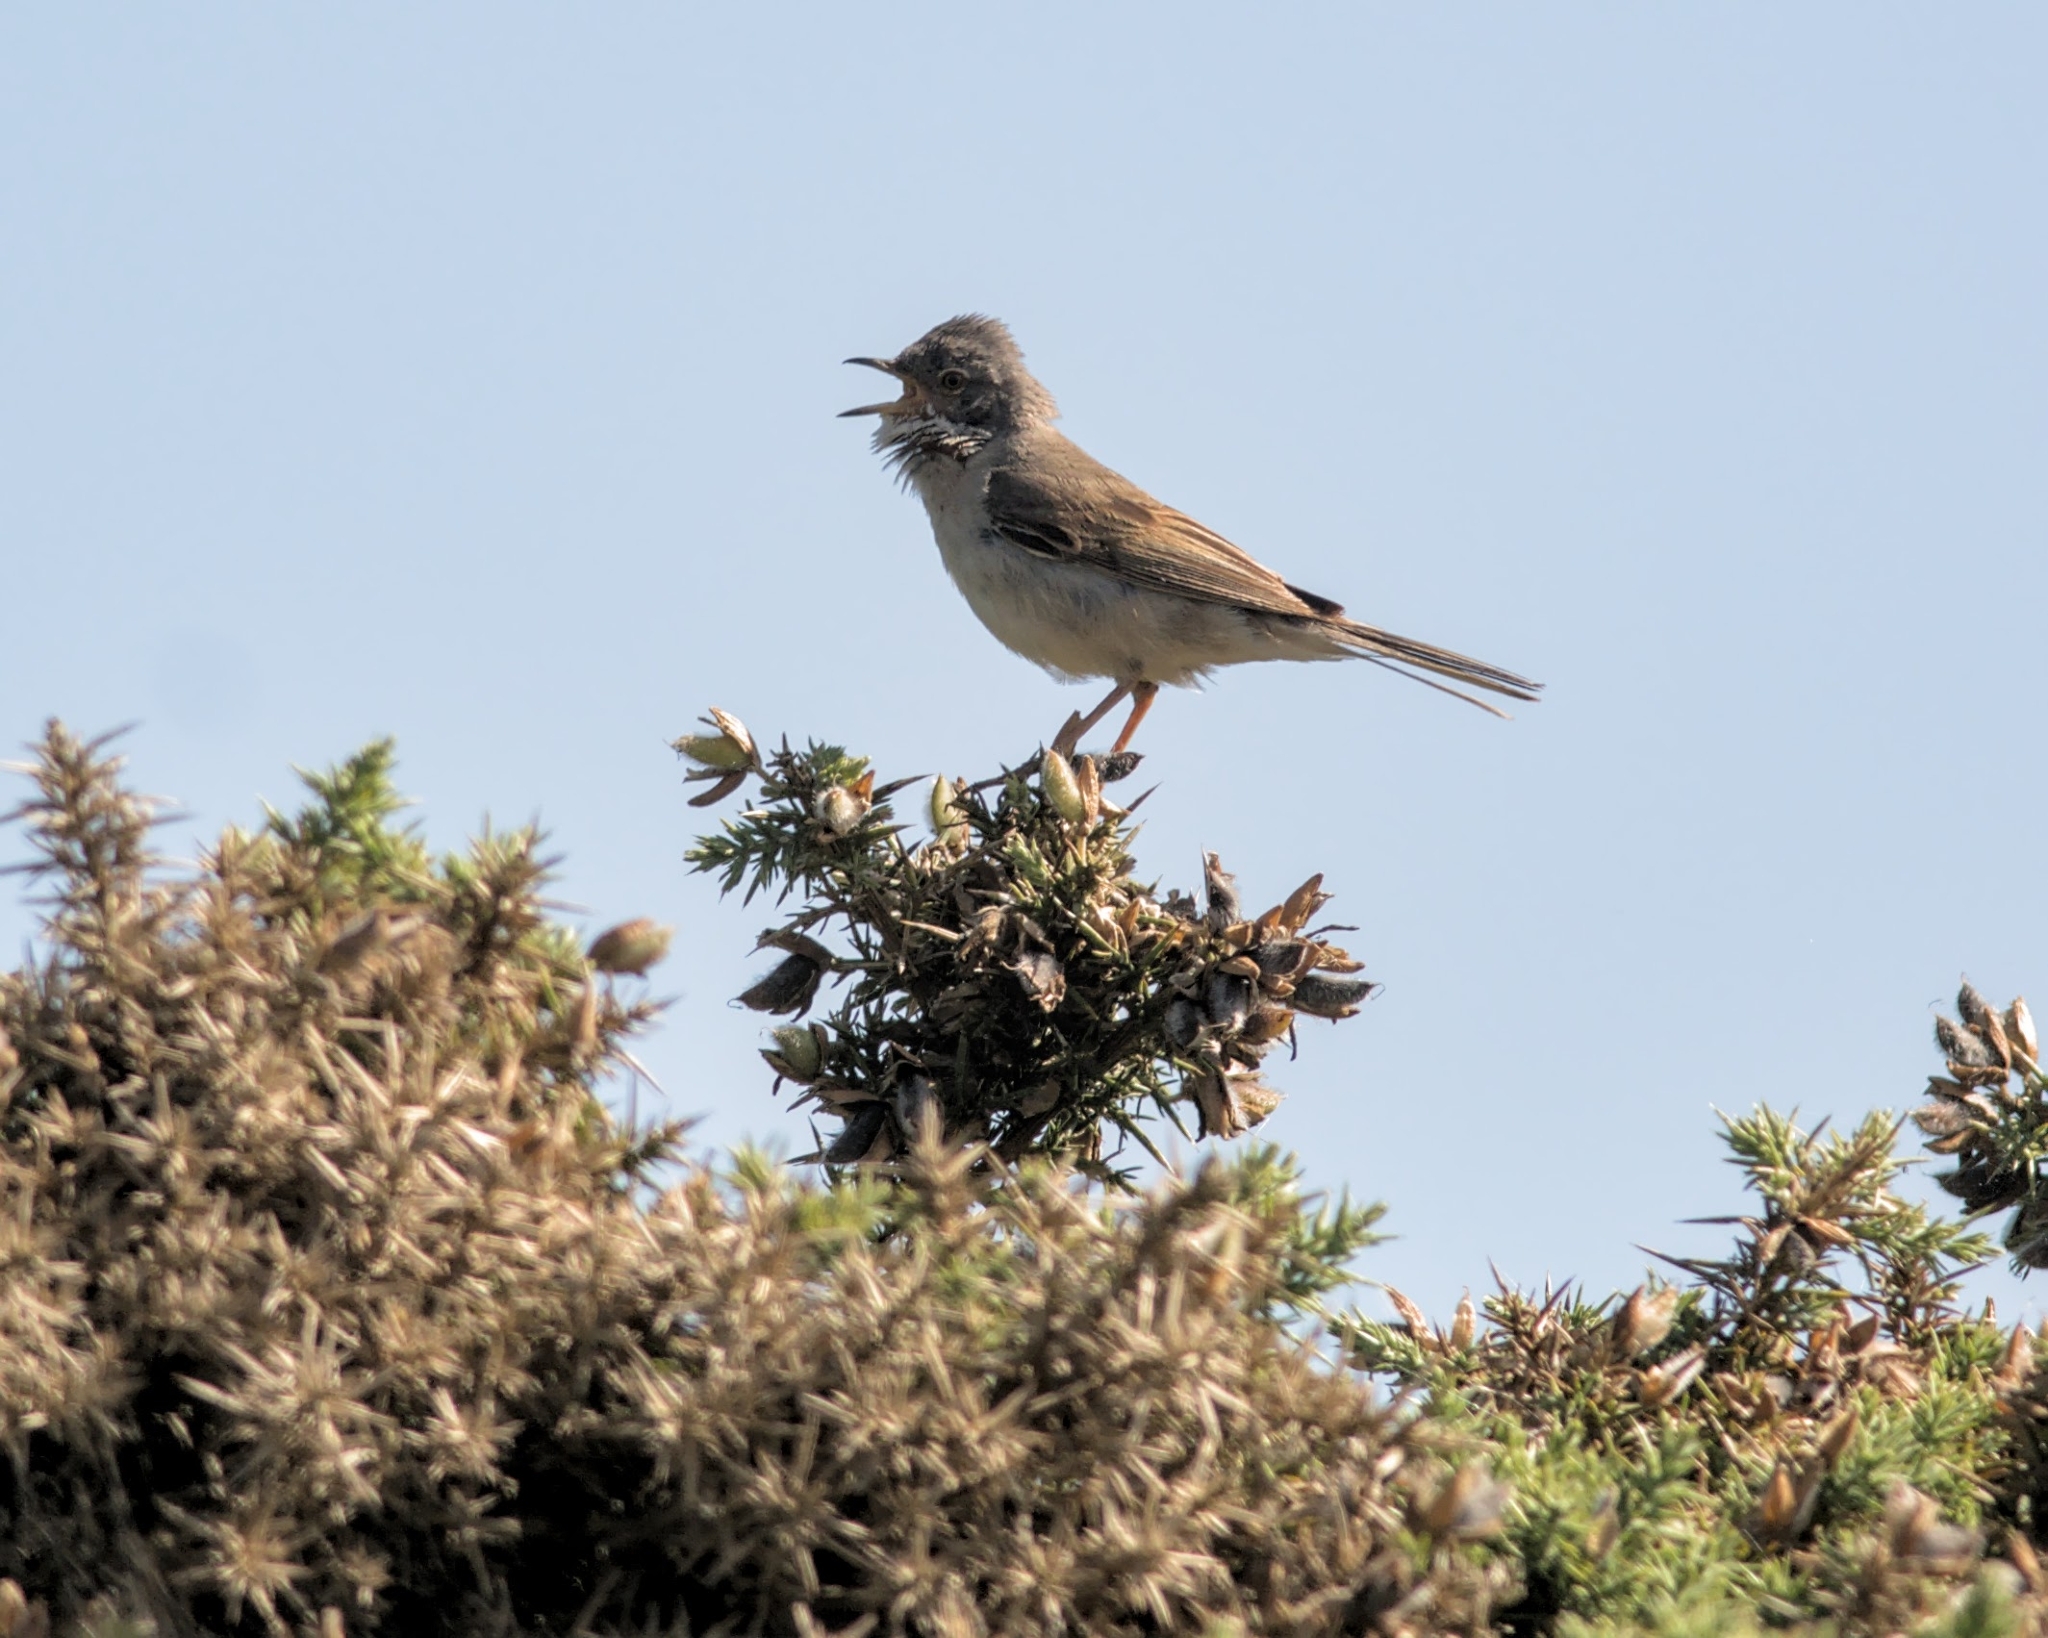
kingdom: Animalia
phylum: Chordata
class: Aves
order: Passeriformes
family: Sylviidae
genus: Sylvia
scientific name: Sylvia communis
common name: Common whitethroat
